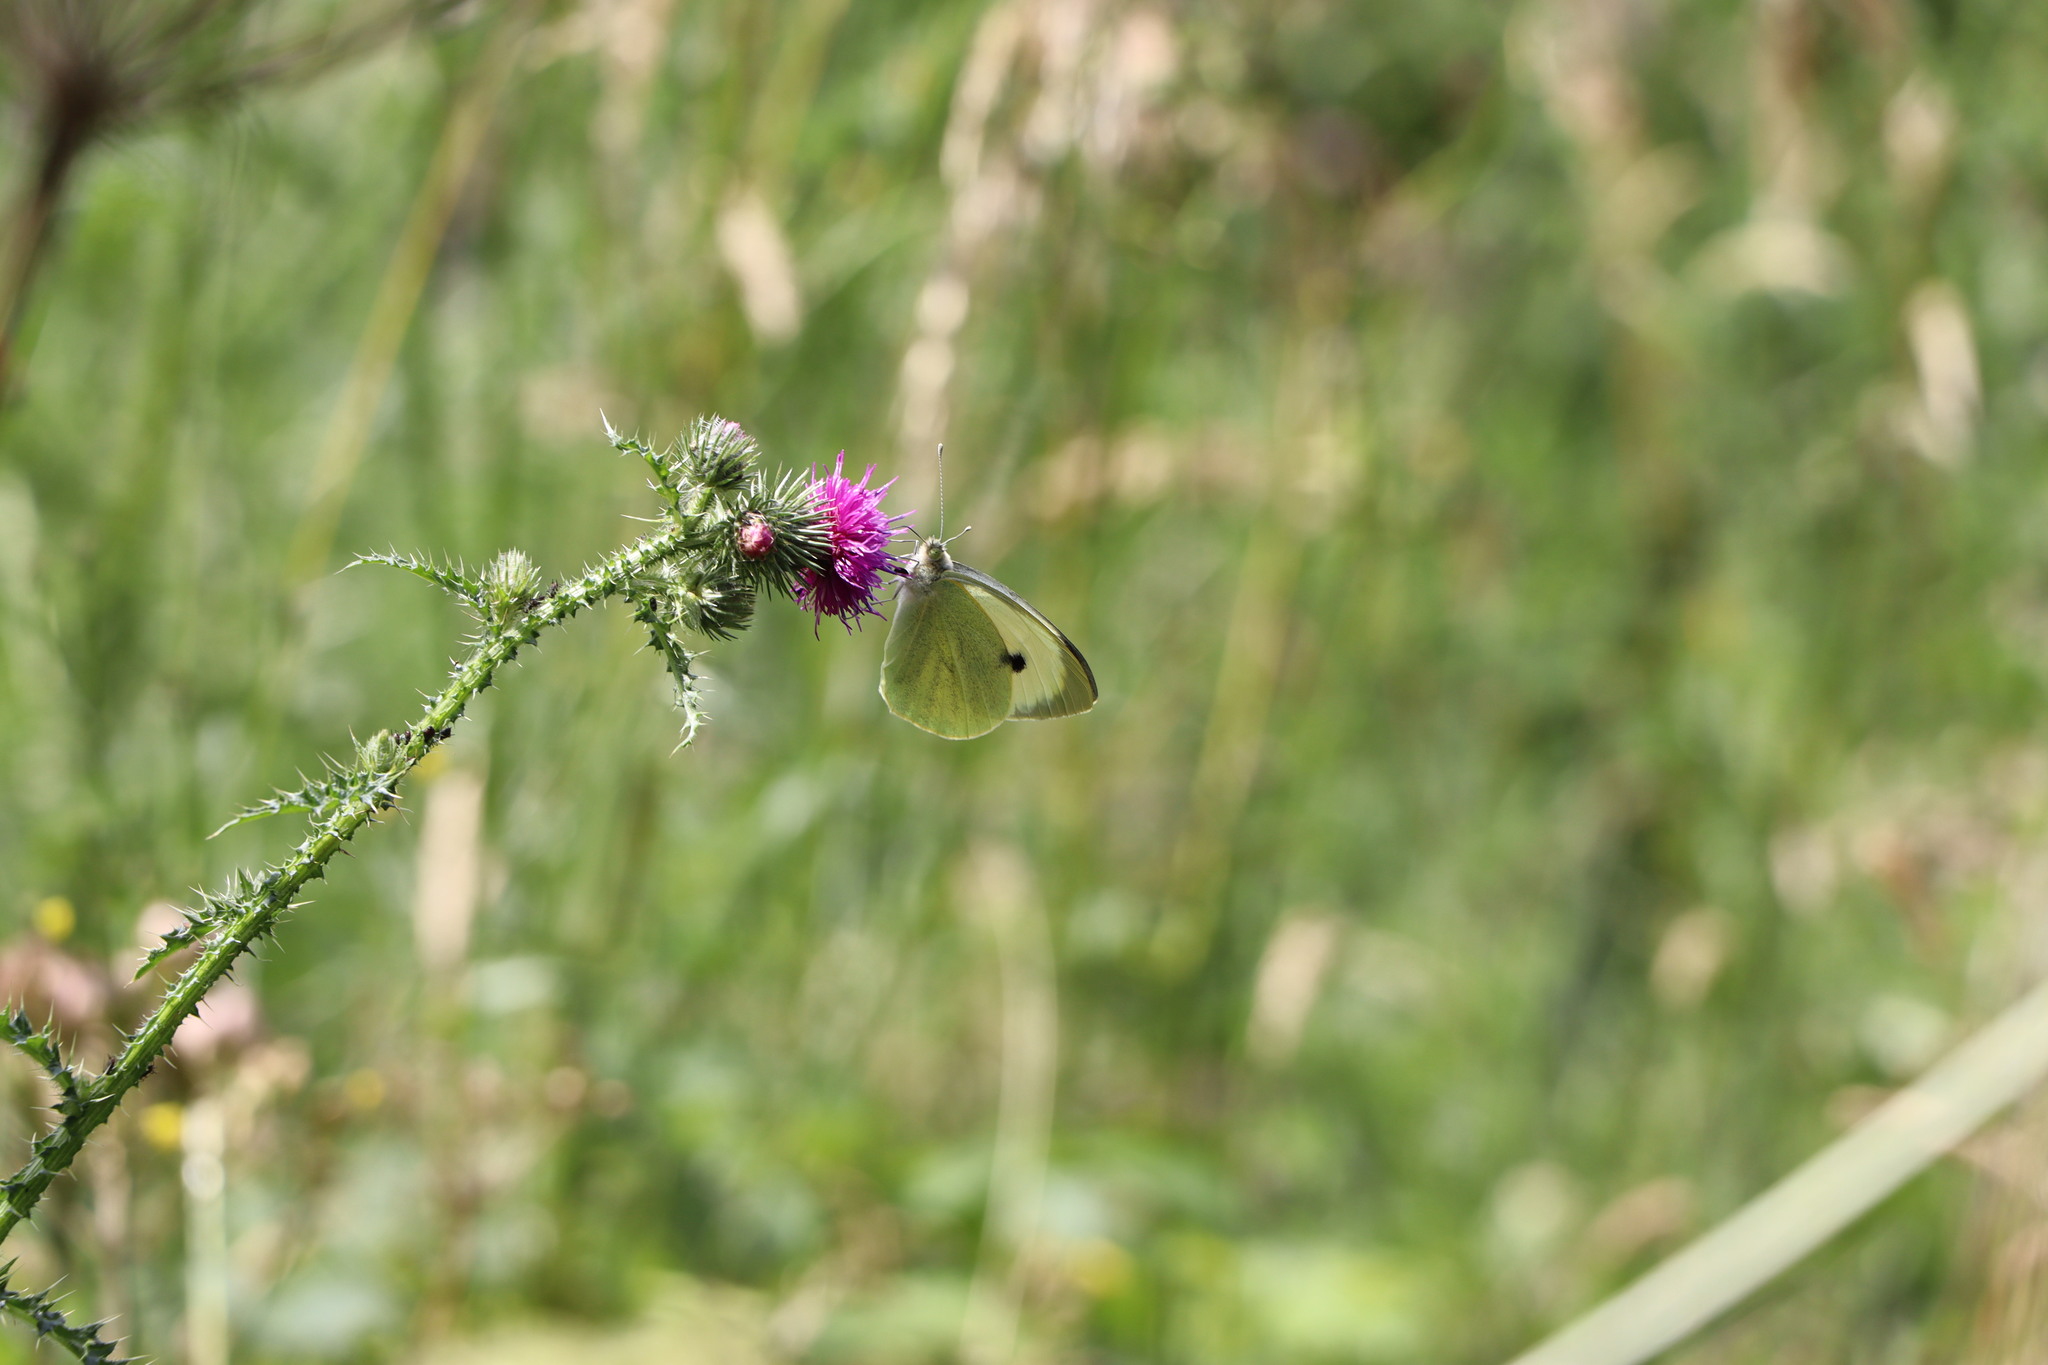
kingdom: Animalia
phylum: Arthropoda
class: Insecta
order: Lepidoptera
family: Pieridae
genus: Pieris
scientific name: Pieris brassicae
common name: Large white
